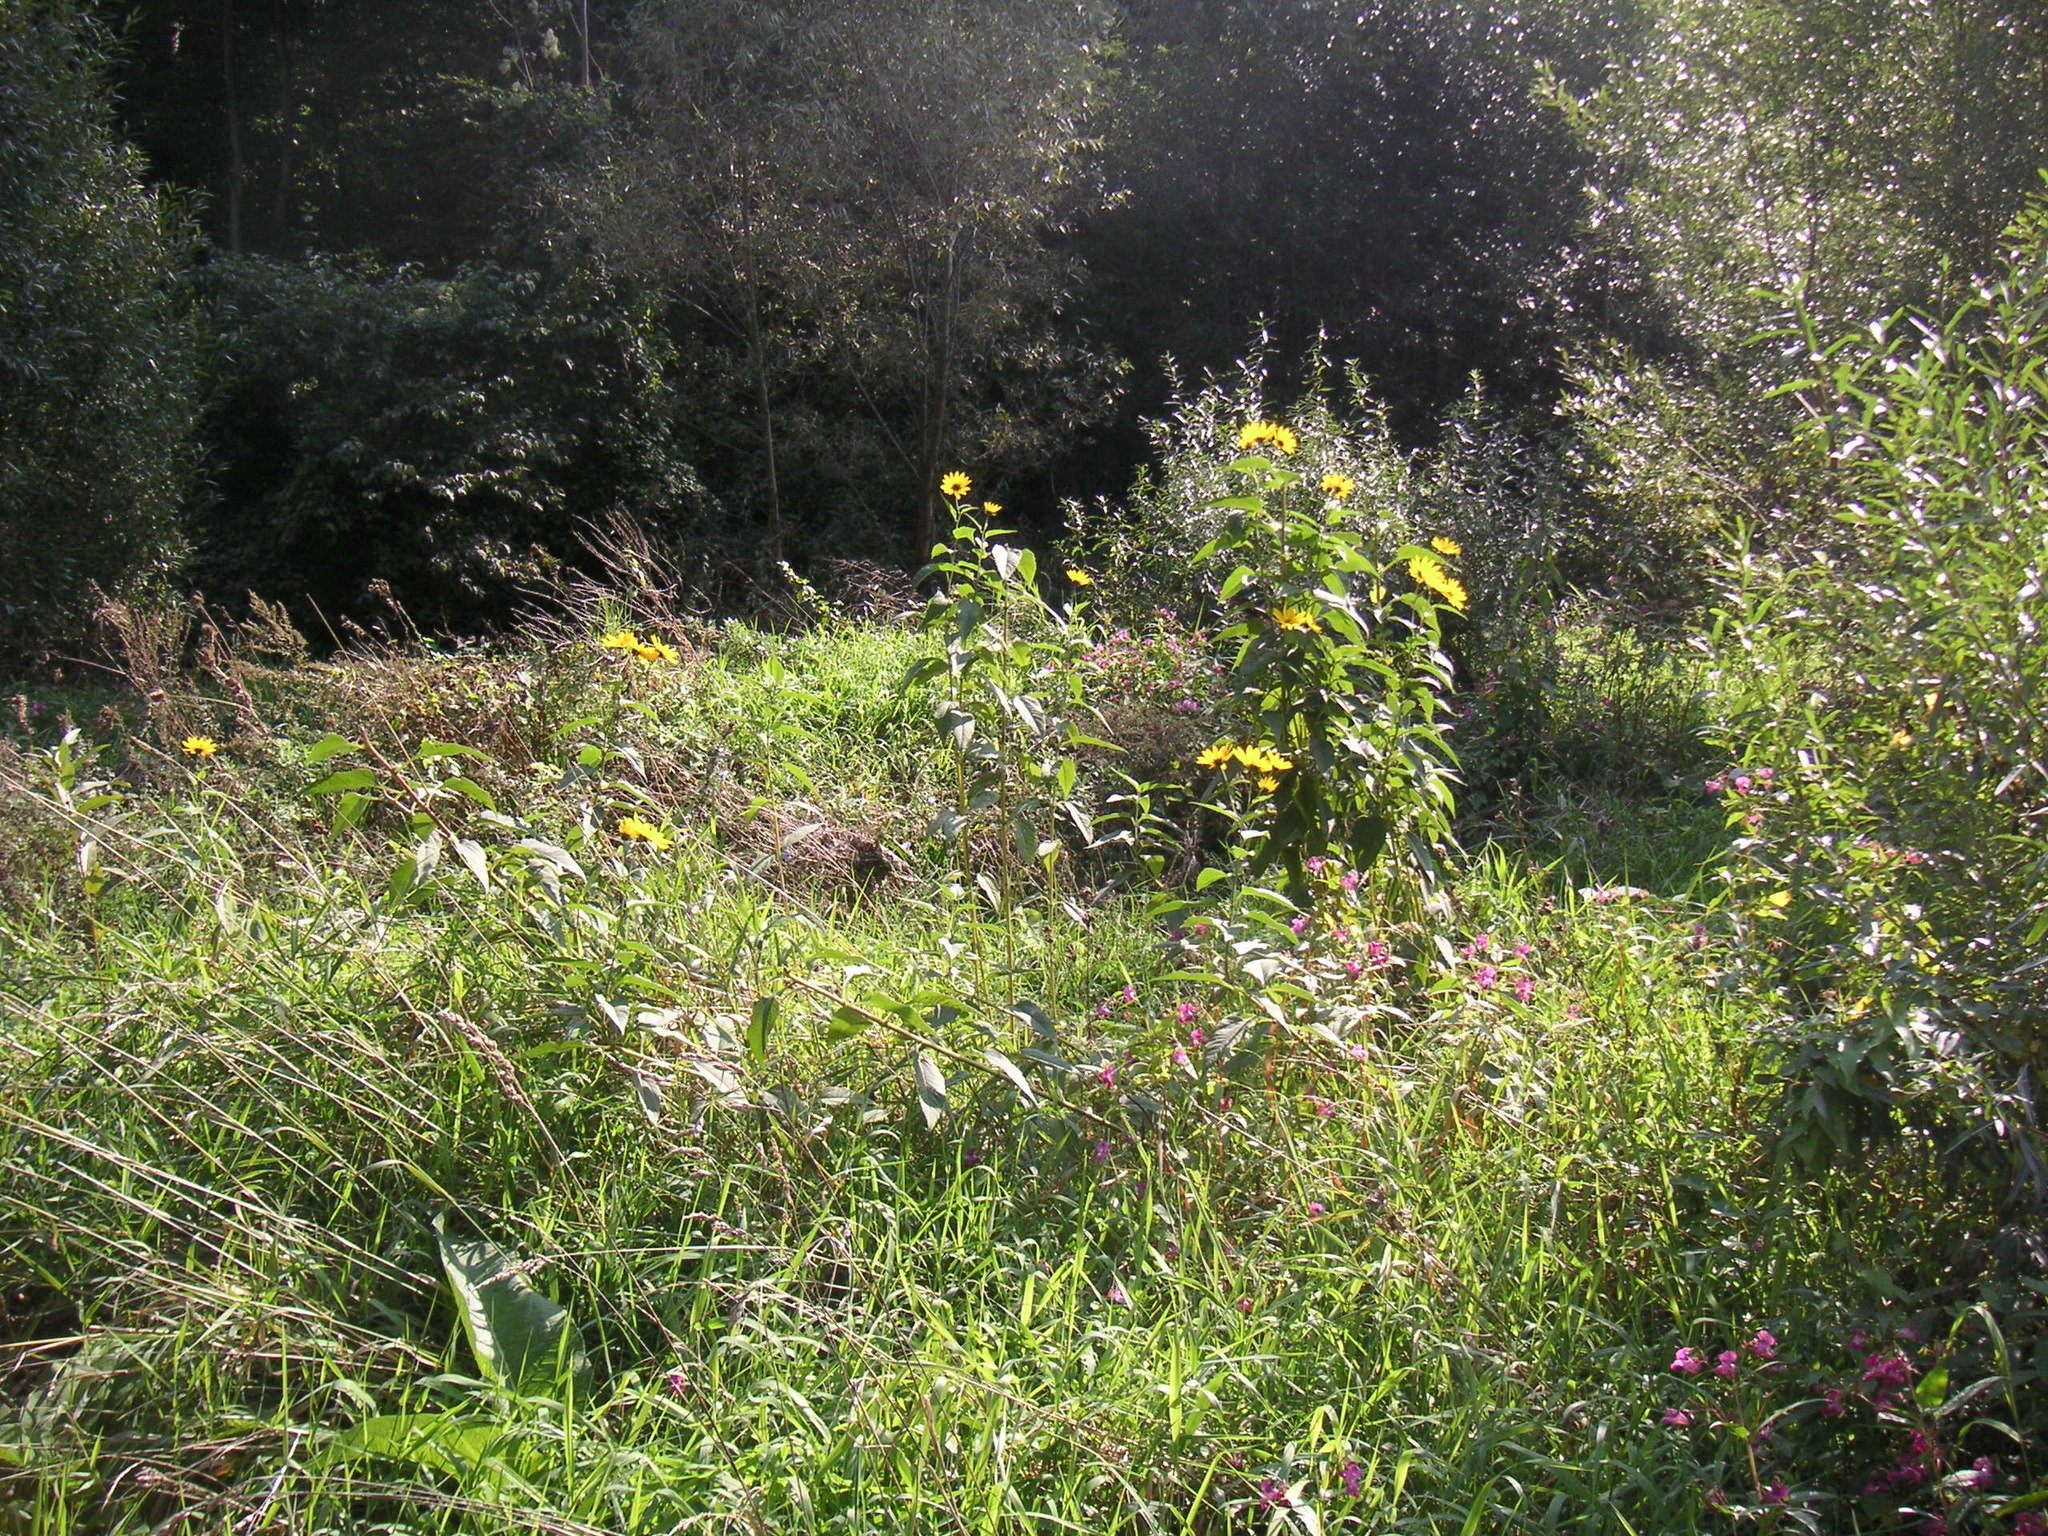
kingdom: Plantae
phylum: Tracheophyta
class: Magnoliopsida
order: Asterales
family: Asteraceae
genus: Helianthus
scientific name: Helianthus tuberosus
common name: Jerusalem artichoke
